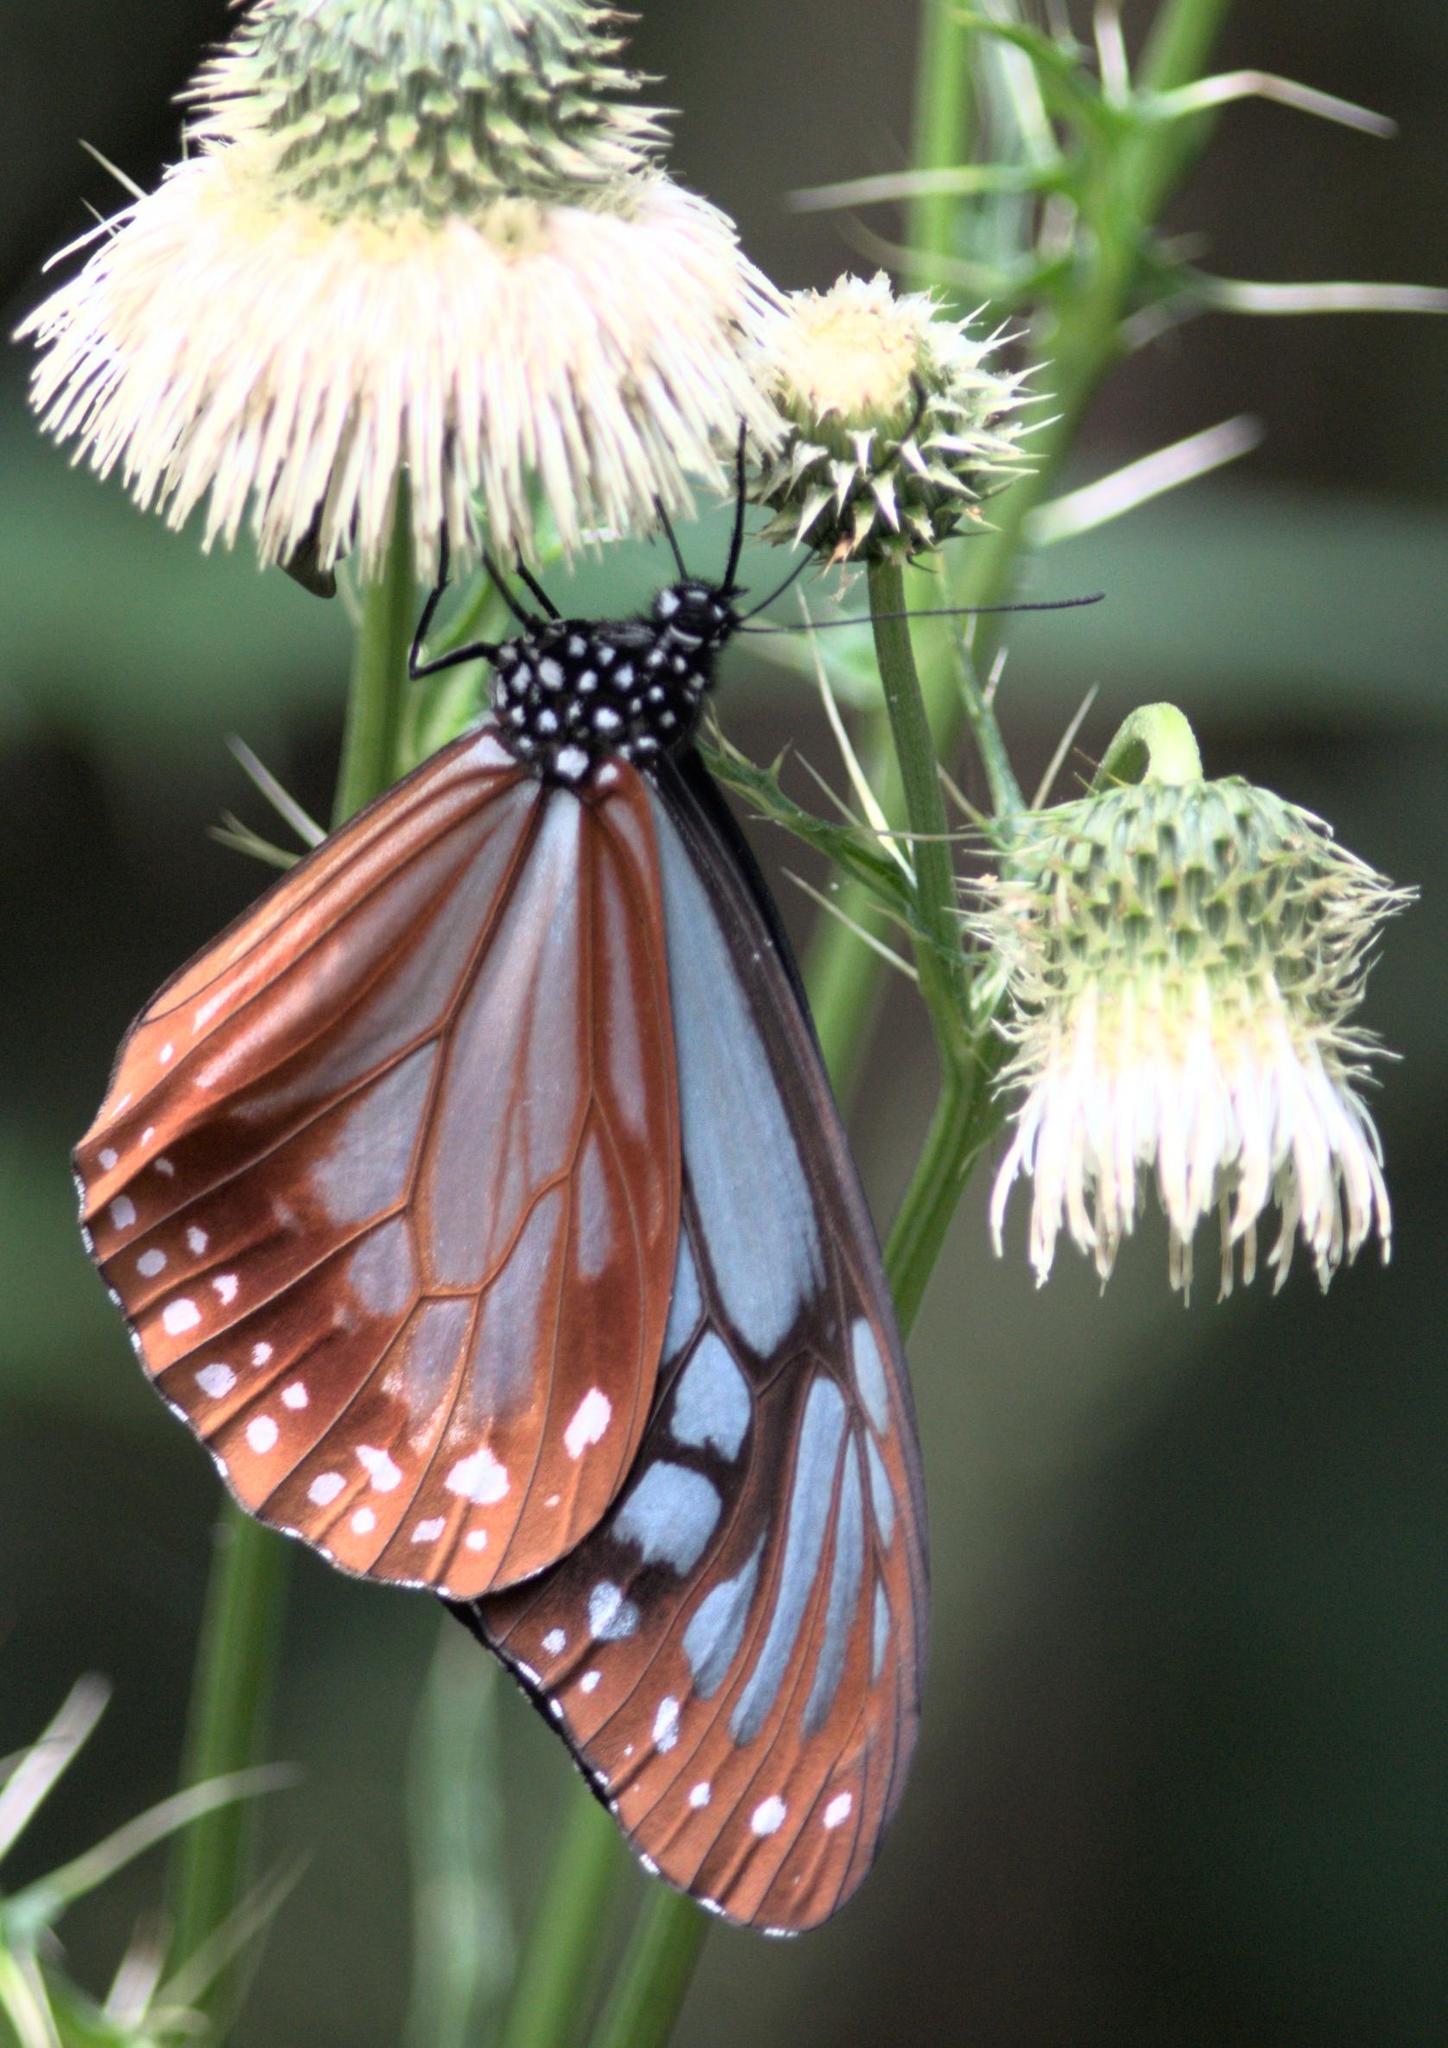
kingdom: Animalia
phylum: Arthropoda
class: Insecta
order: Lepidoptera
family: Nymphalidae
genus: Parantica
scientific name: Parantica sita
